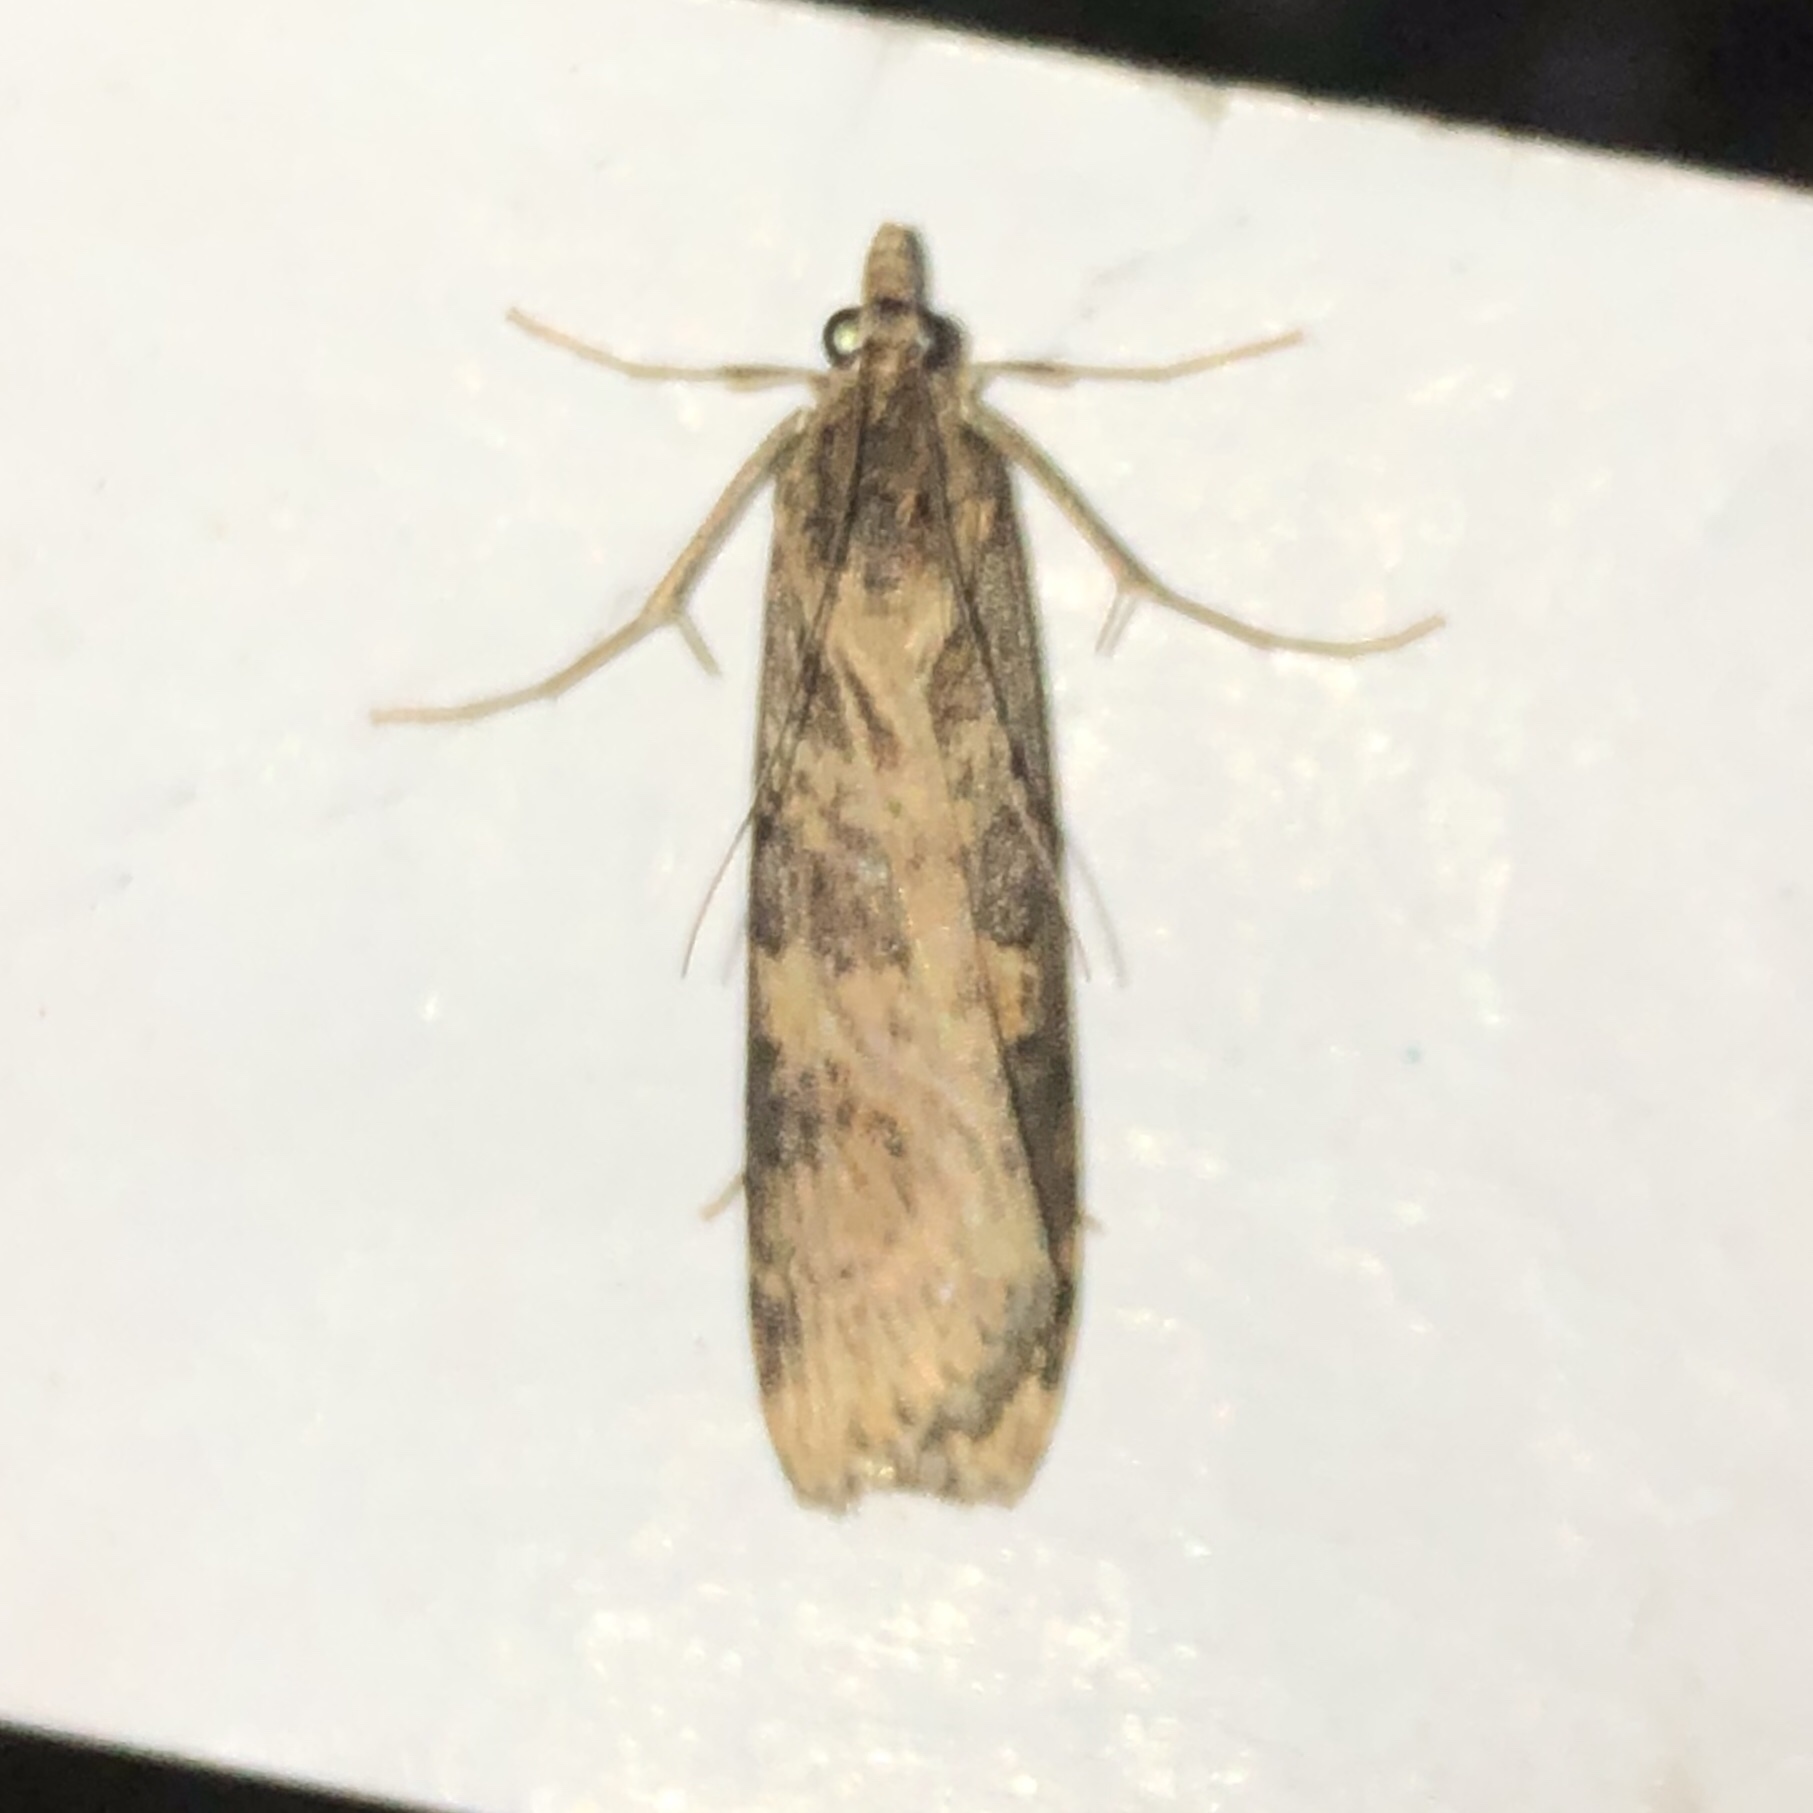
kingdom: Animalia
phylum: Arthropoda
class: Insecta
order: Lepidoptera
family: Crambidae
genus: Nomophila
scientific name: Nomophila nearctica
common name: American rush veneer
